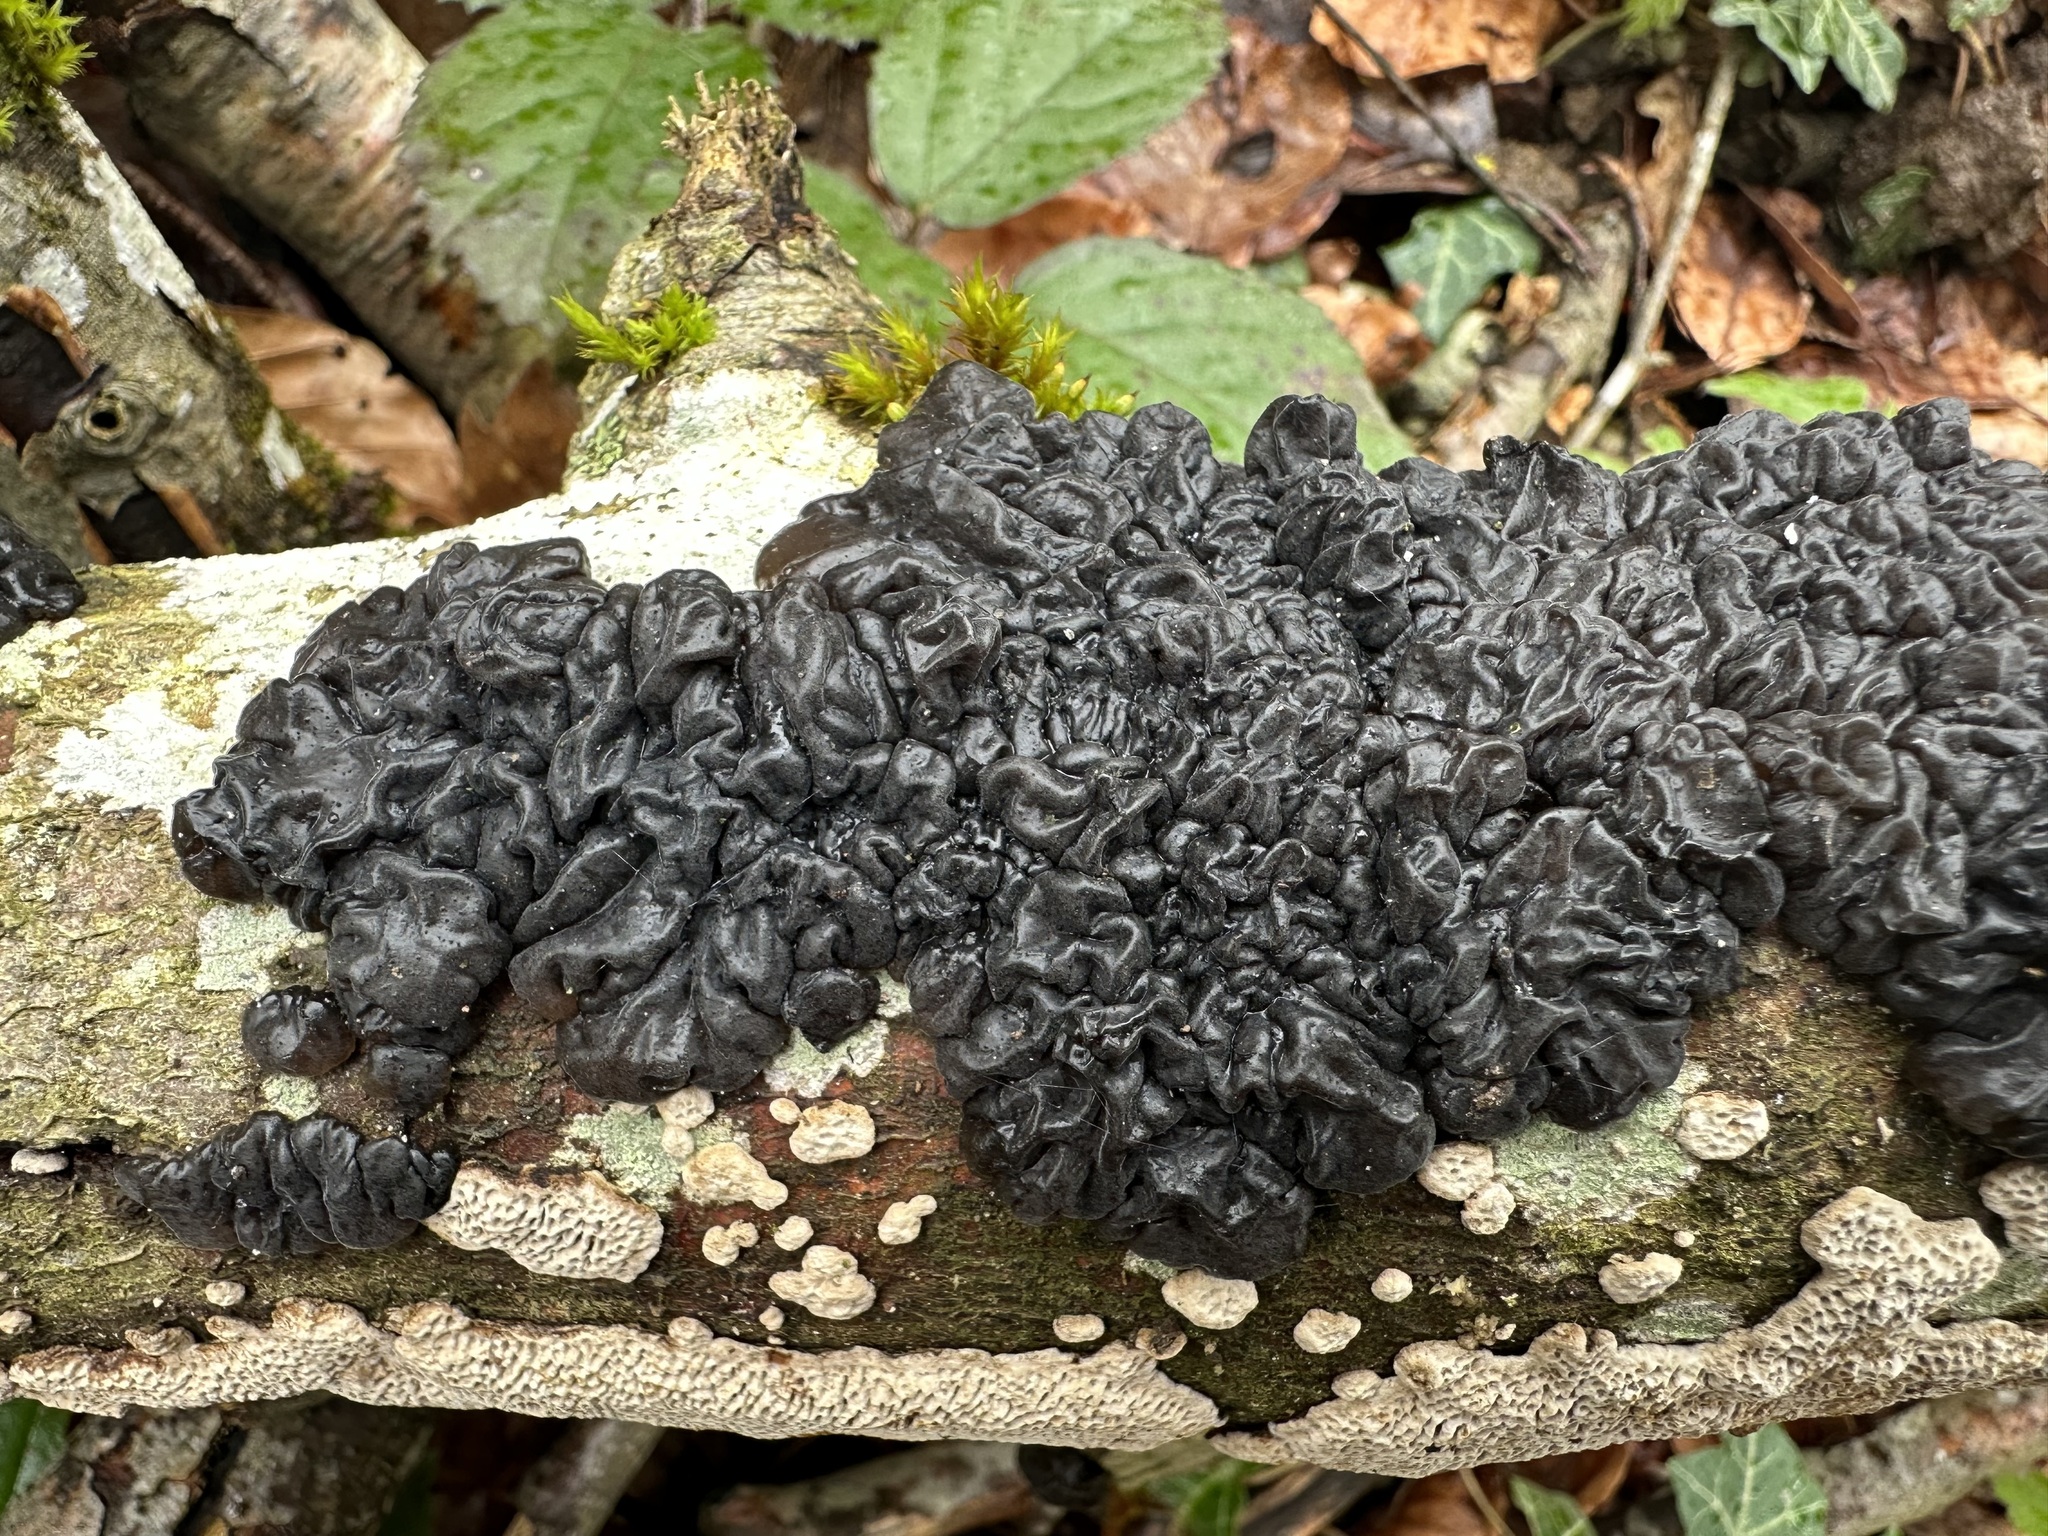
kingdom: Fungi
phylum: Basidiomycota
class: Agaricomycetes
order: Auriculariales
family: Auriculariaceae
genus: Exidia
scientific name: Exidia nigricans
